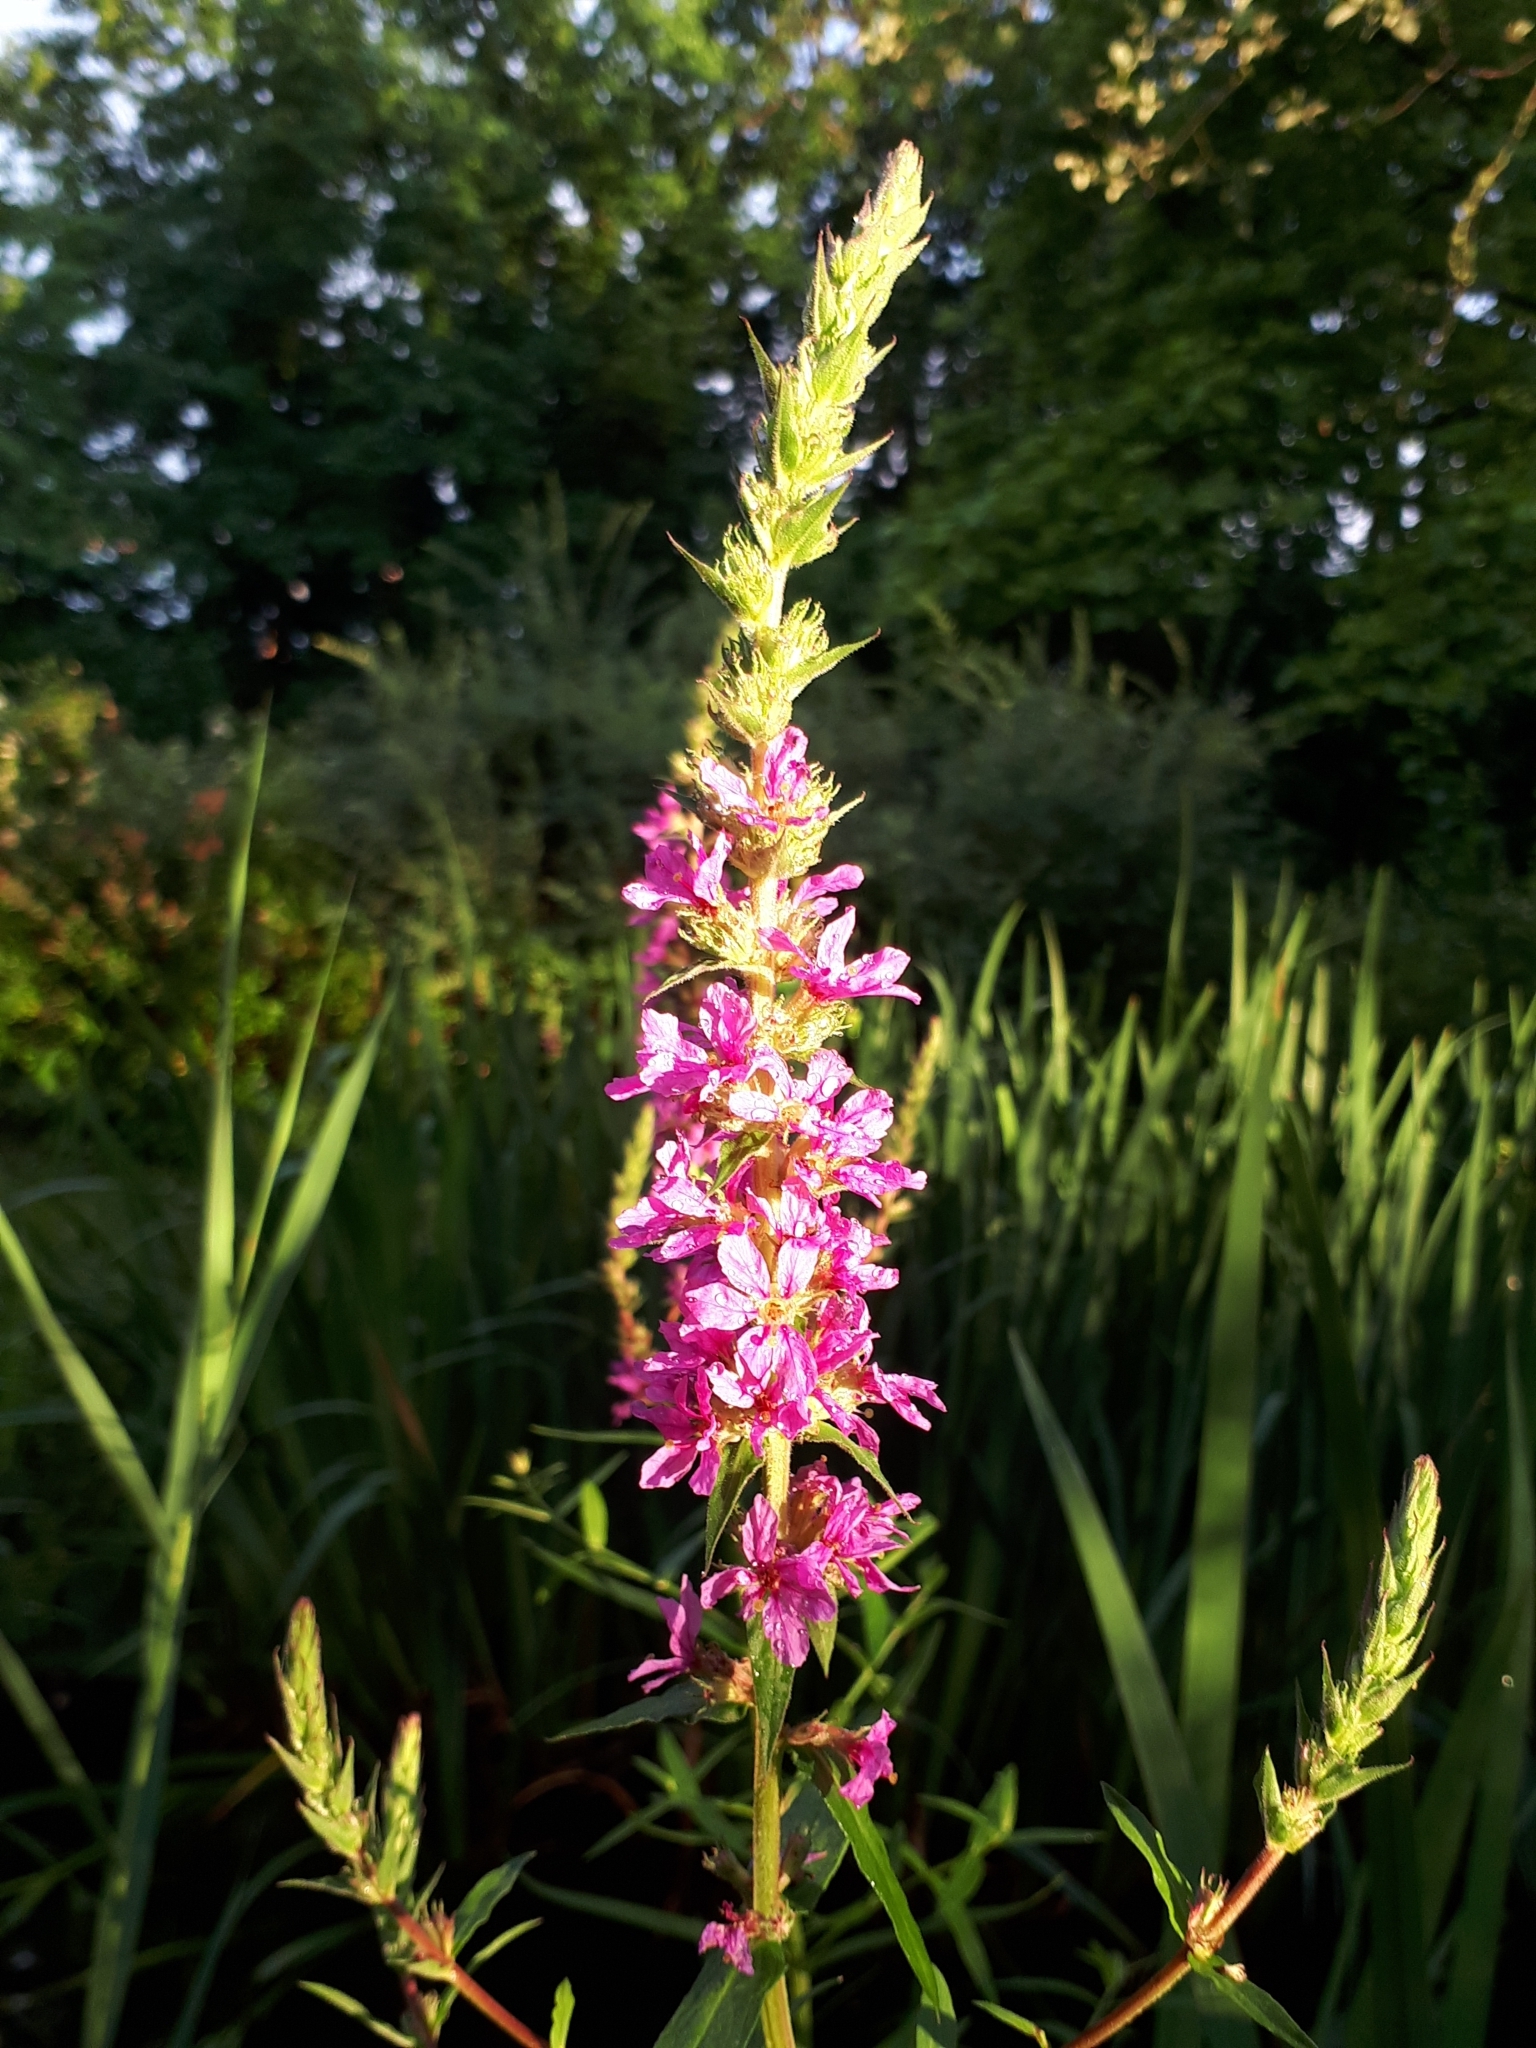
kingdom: Plantae
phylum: Tracheophyta
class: Magnoliopsida
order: Myrtales
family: Lythraceae
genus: Lythrum
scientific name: Lythrum salicaria
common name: Purple loosestrife
